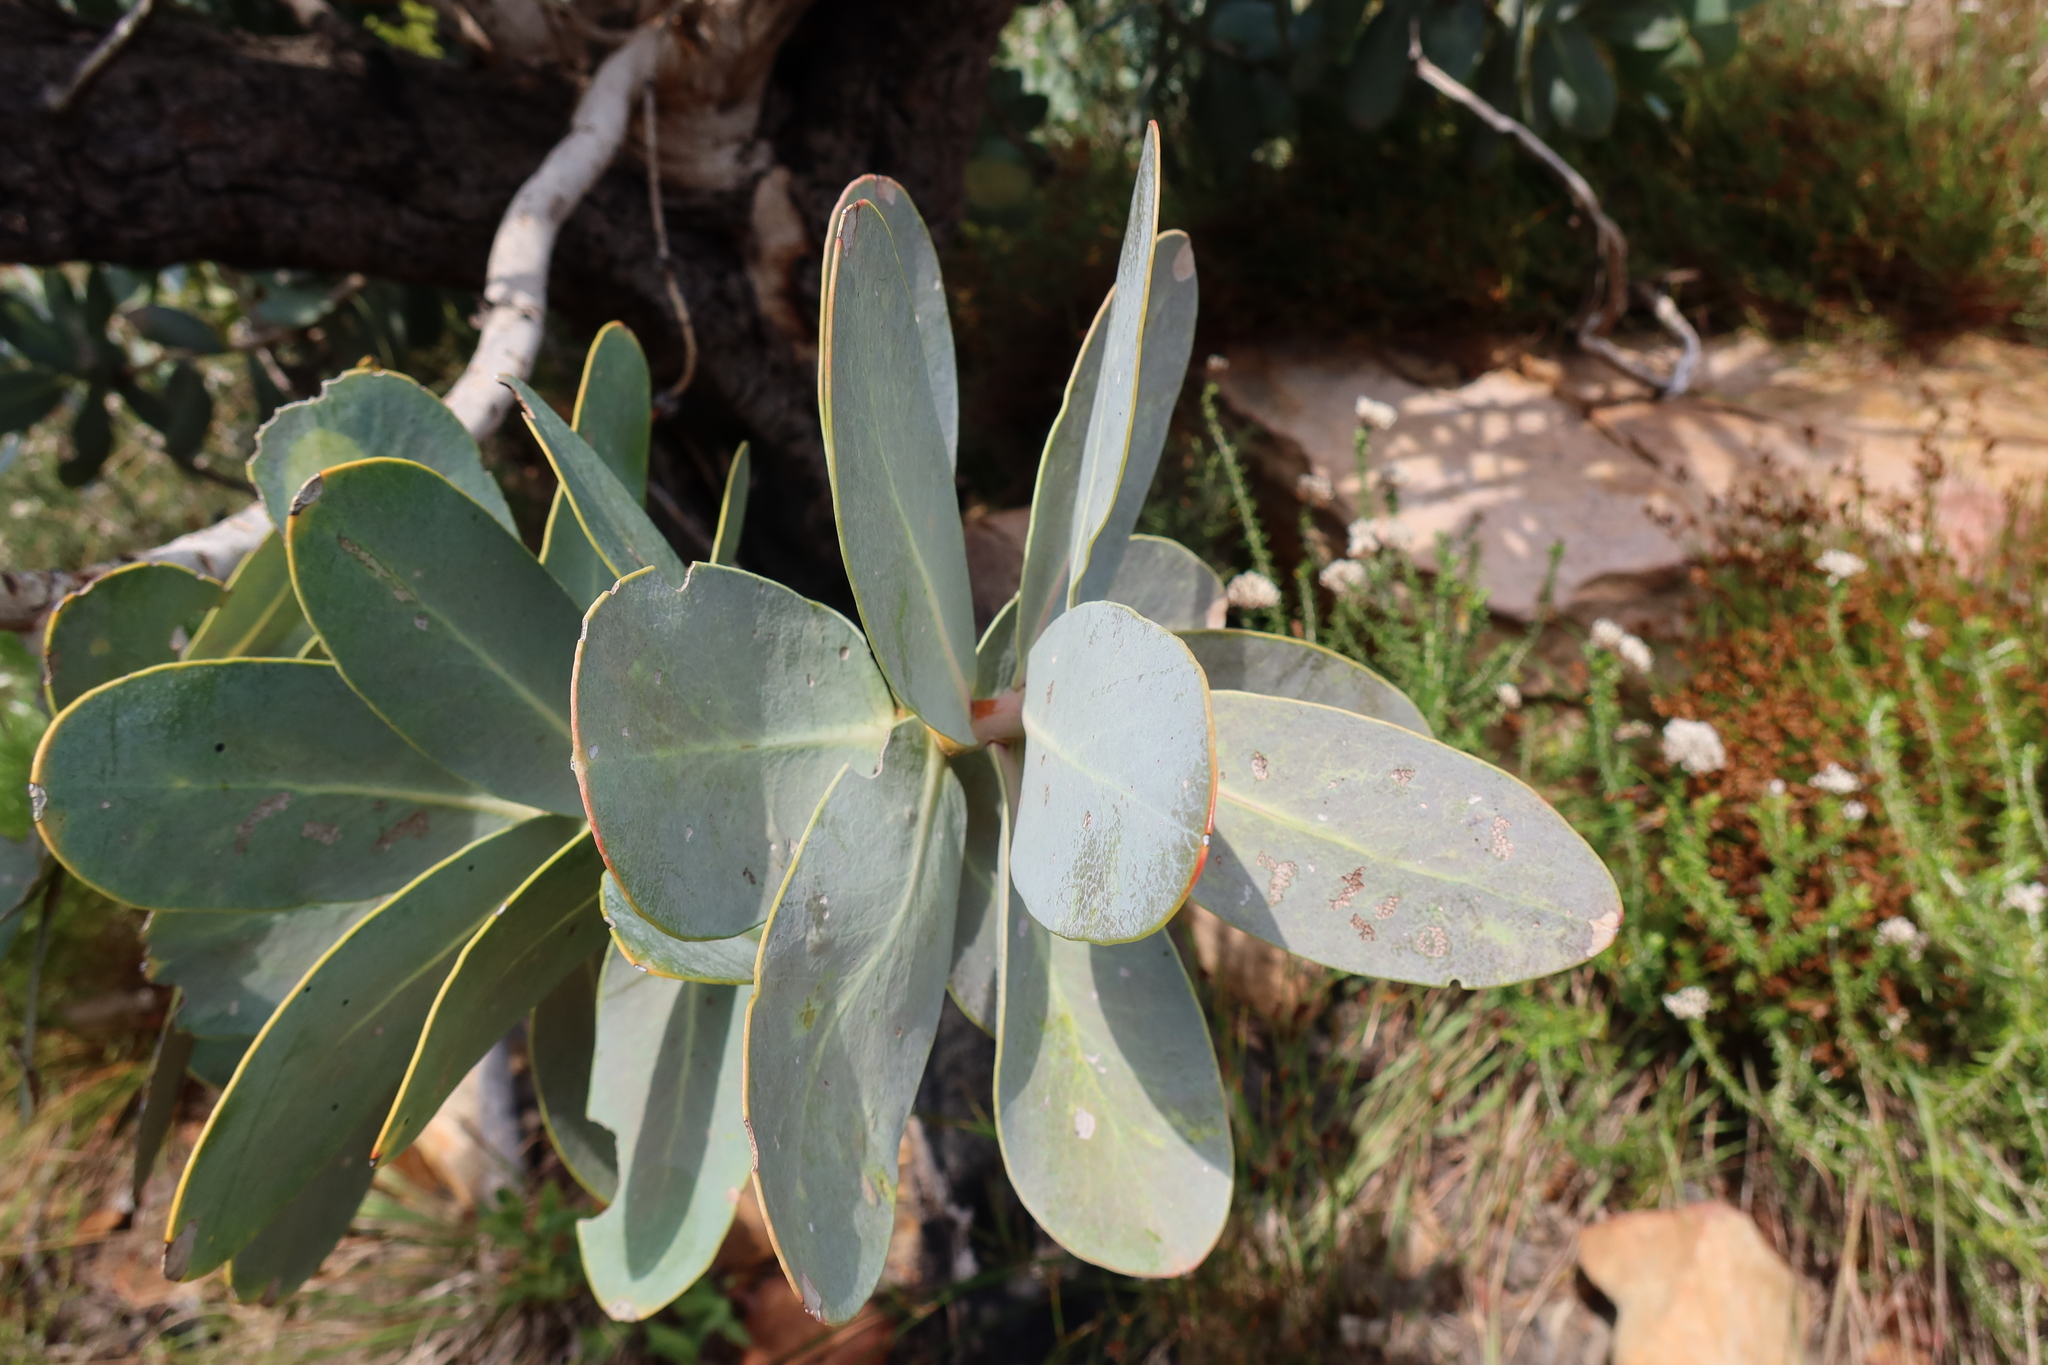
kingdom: Plantae
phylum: Tracheophyta
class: Magnoliopsida
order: Proteales
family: Proteaceae
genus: Protea
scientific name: Protea nitida
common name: Tree protea
